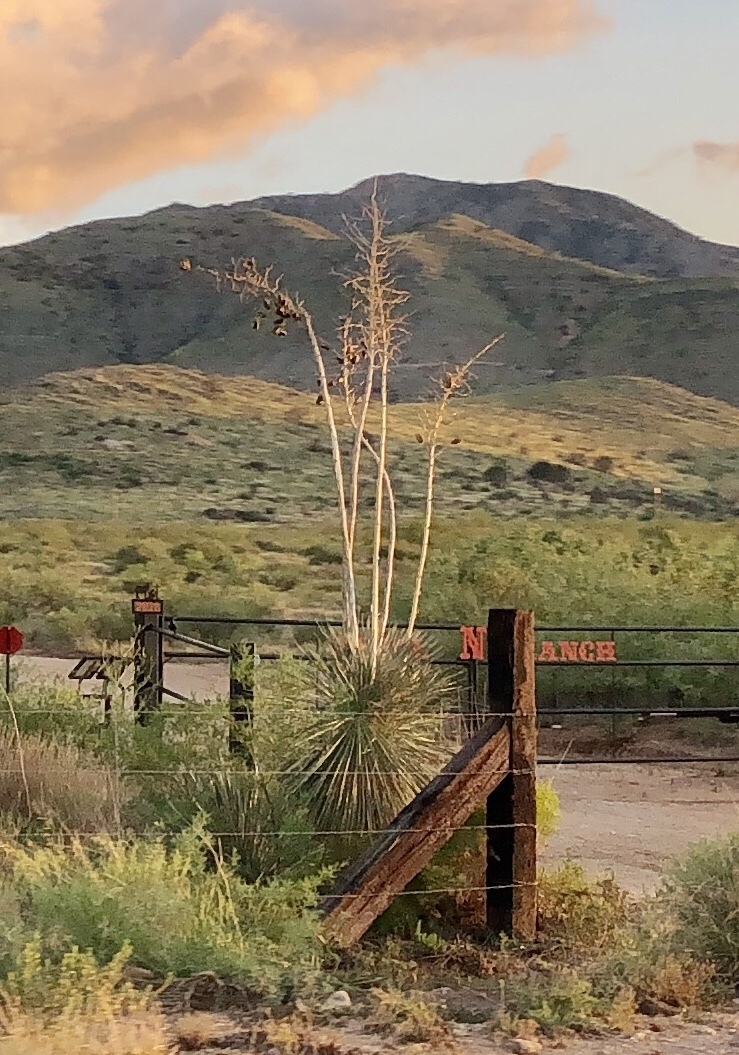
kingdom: Plantae
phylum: Tracheophyta
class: Liliopsida
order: Asparagales
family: Asparagaceae
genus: Yucca
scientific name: Yucca elata
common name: Palmella
